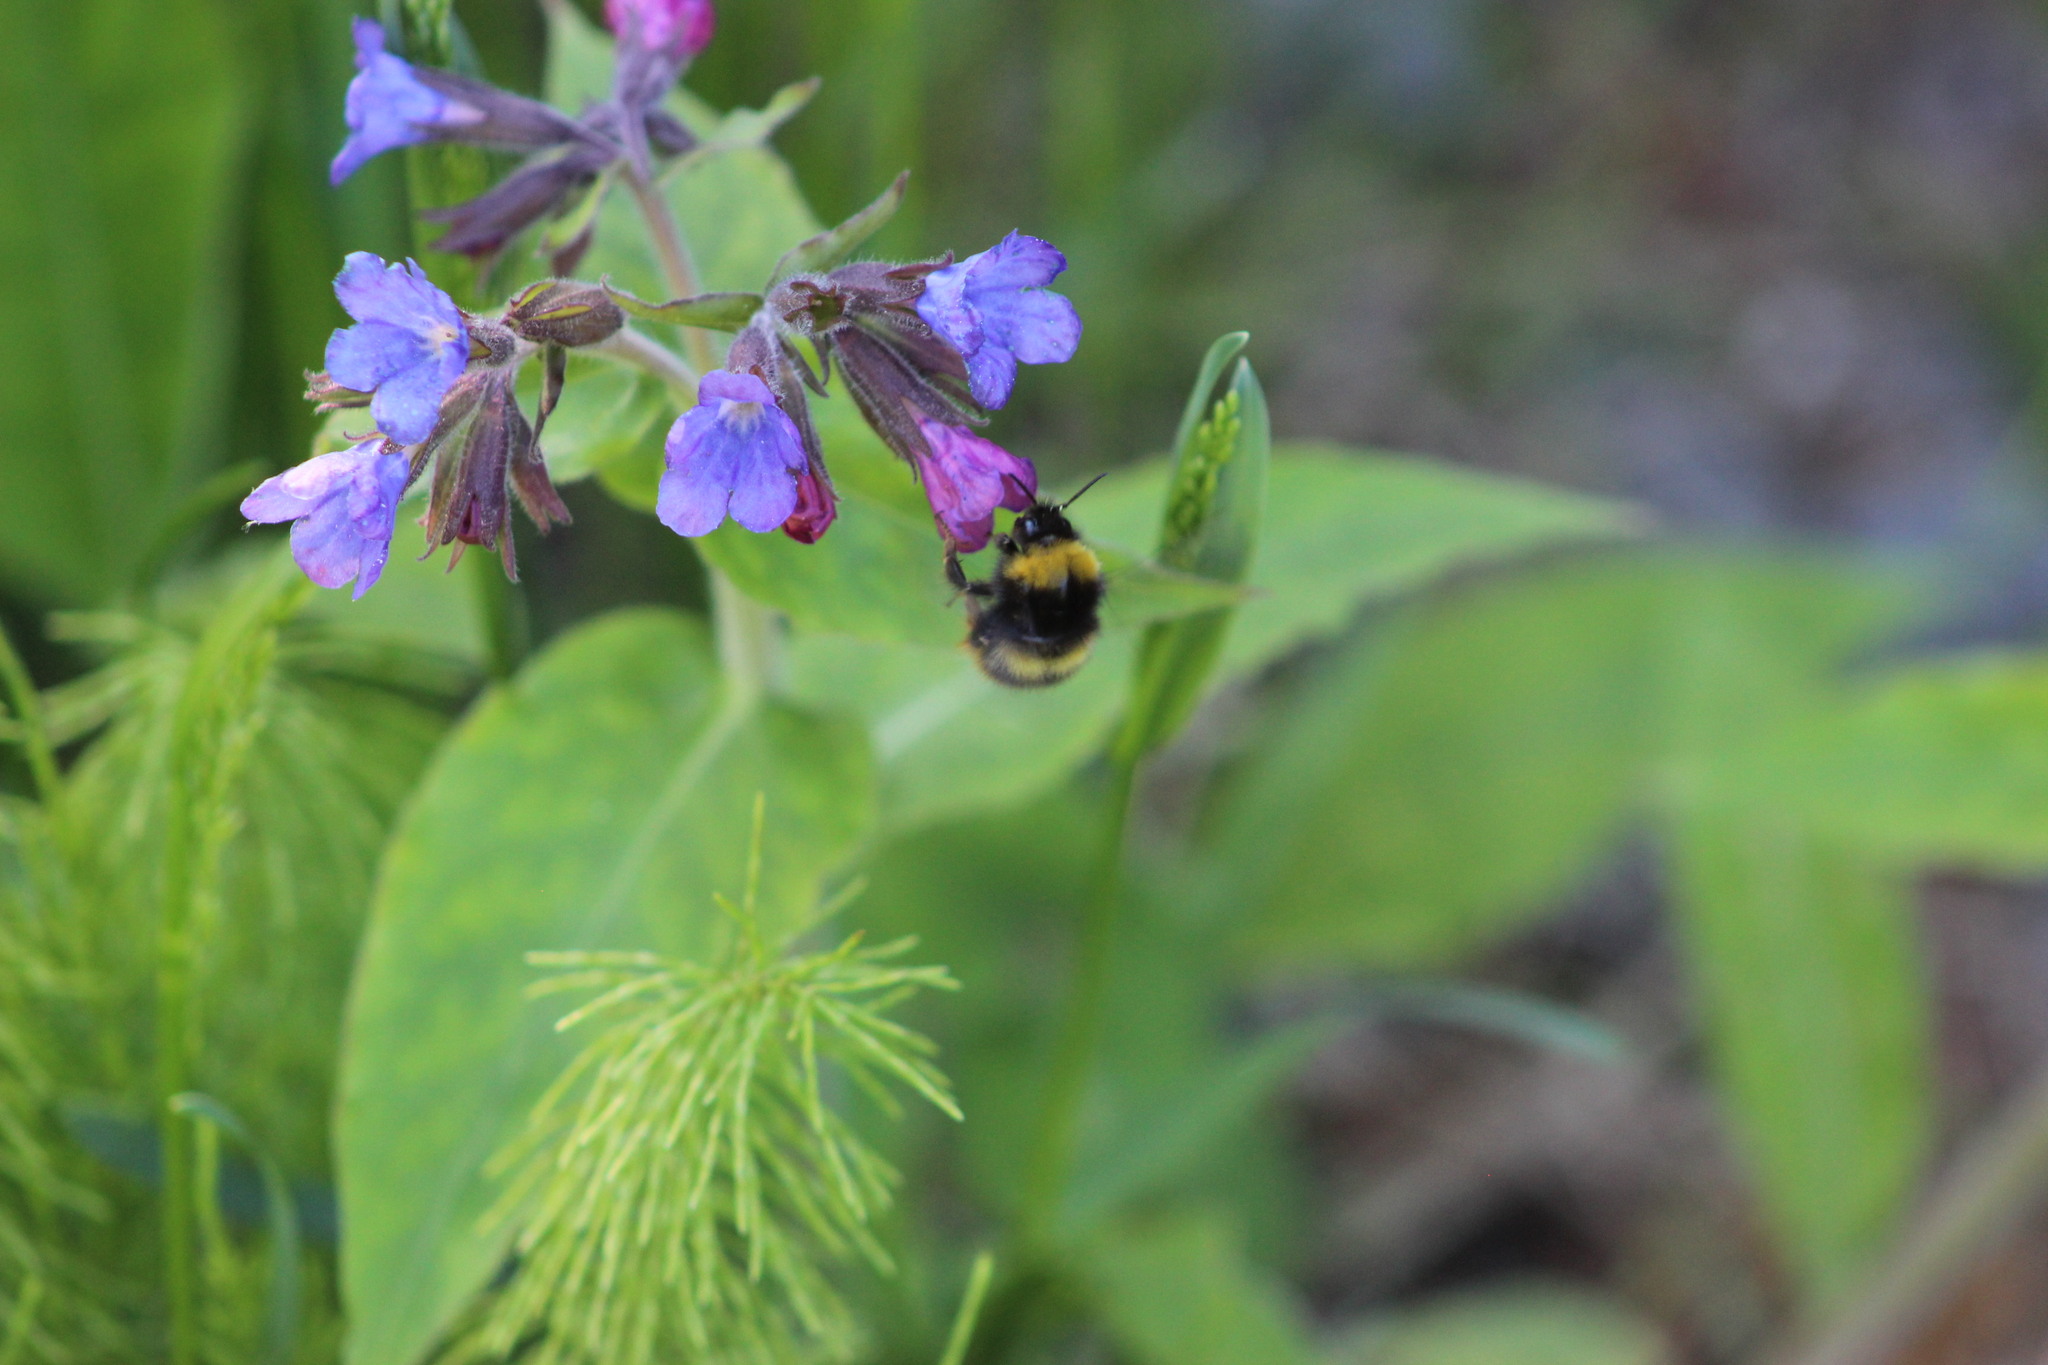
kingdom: Animalia
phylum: Arthropoda
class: Insecta
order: Hymenoptera
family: Apidae
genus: Bombus
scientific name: Bombus pratorum
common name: Early humble-bee
